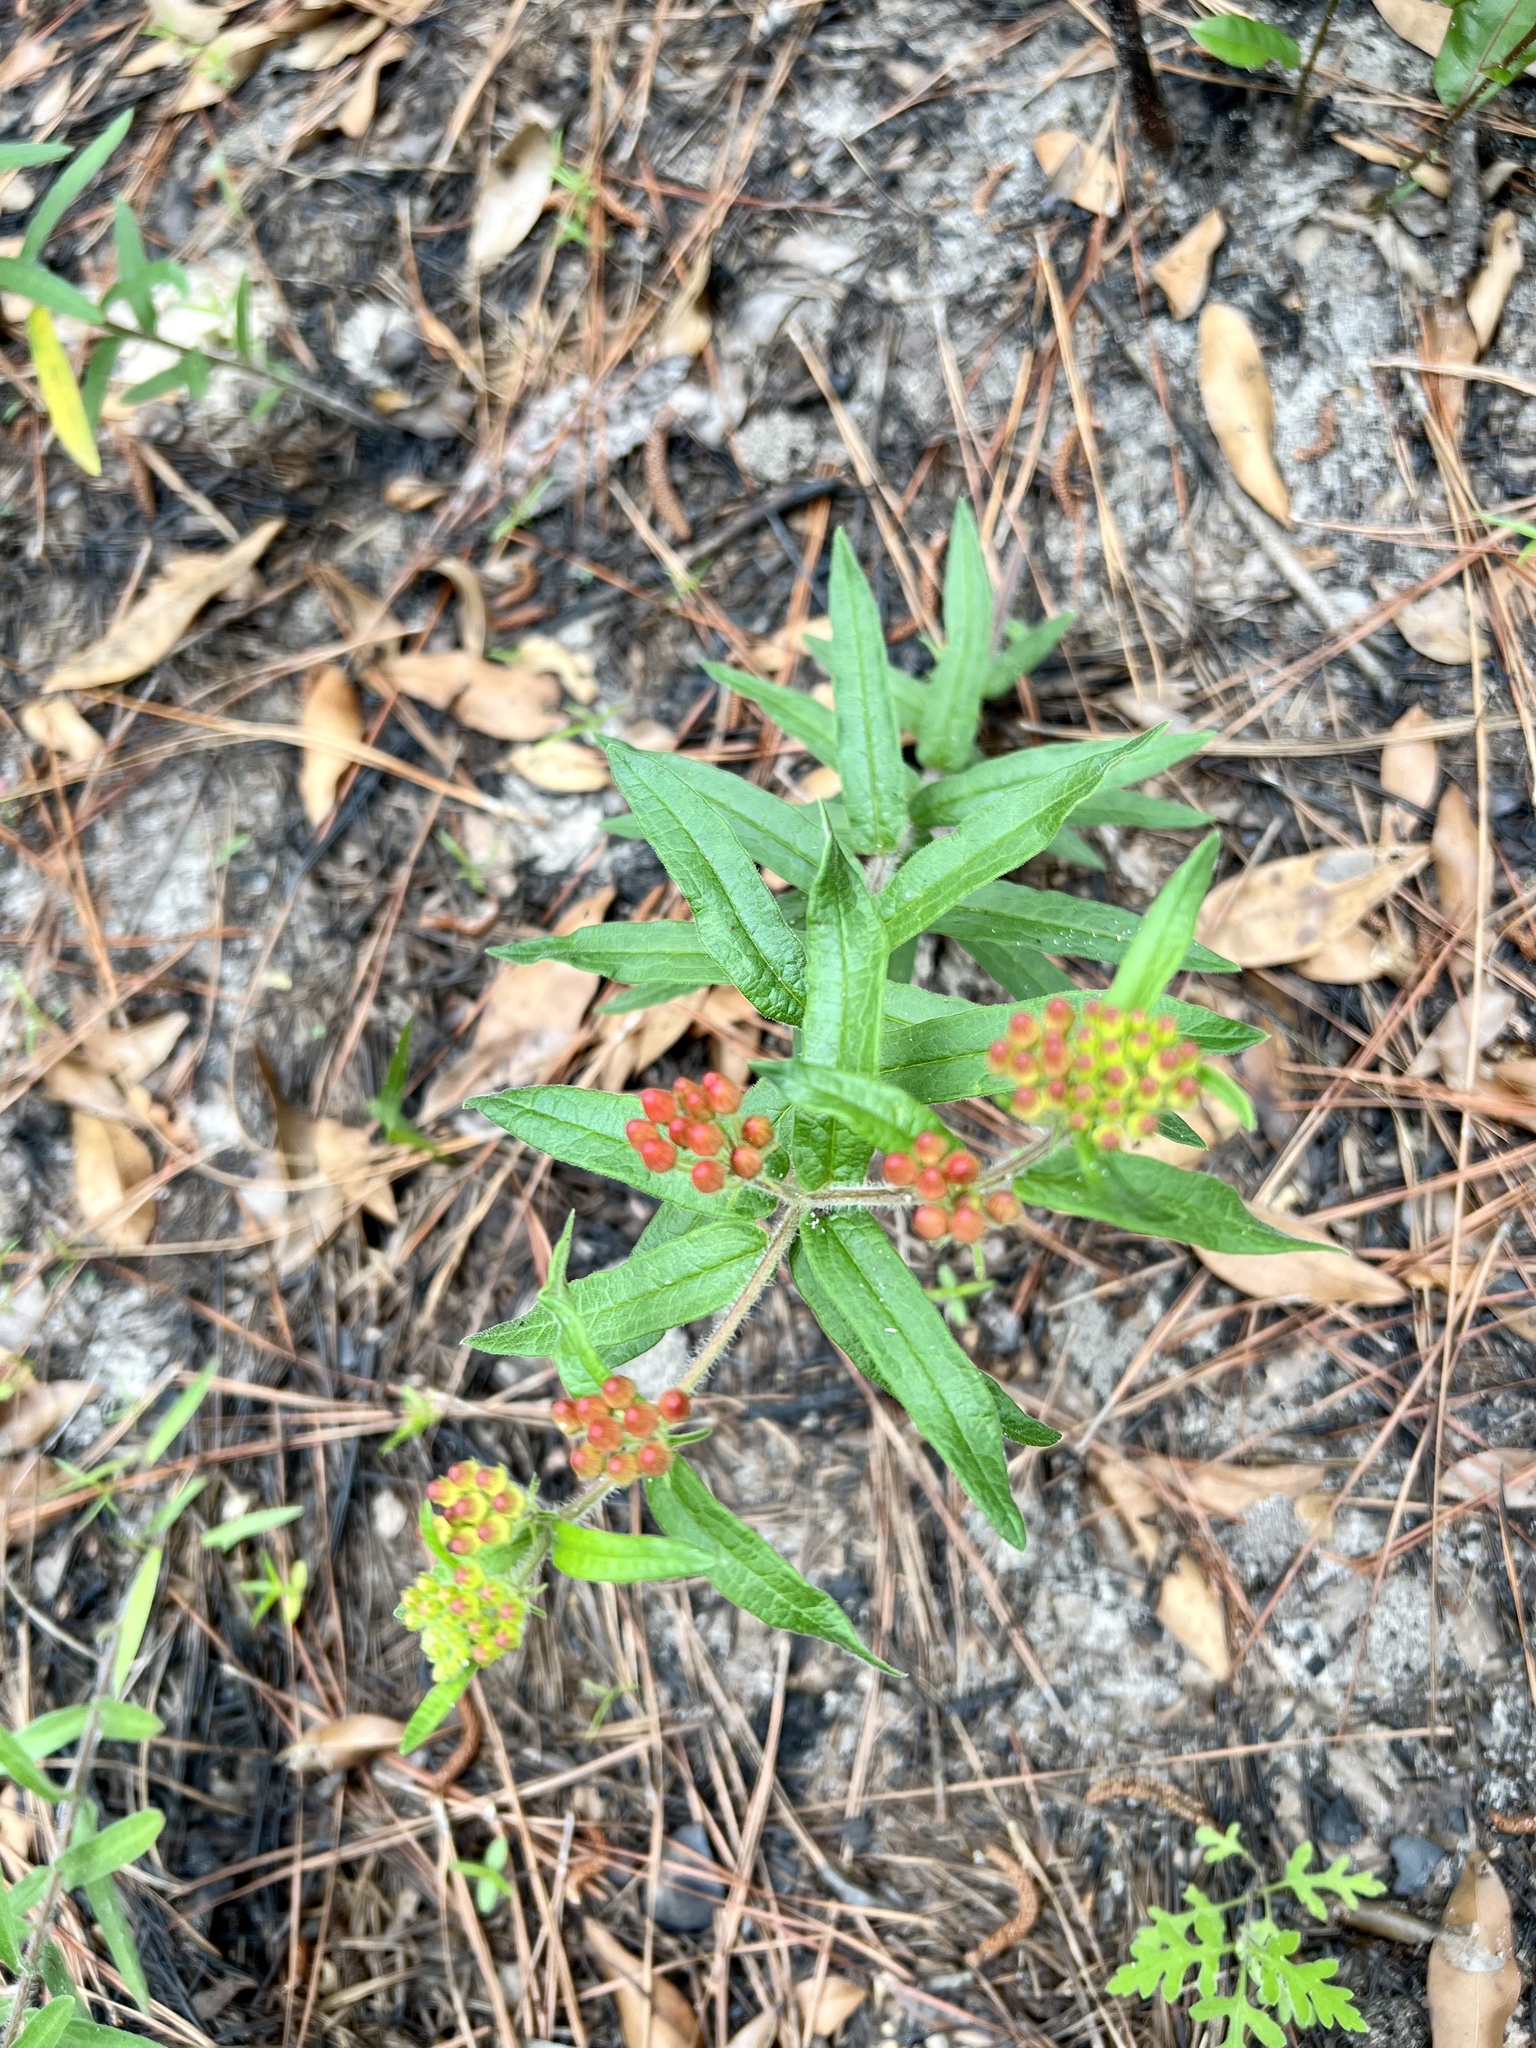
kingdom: Plantae
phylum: Tracheophyta
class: Magnoliopsida
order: Gentianales
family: Apocynaceae
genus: Asclepias
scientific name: Asclepias tuberosa
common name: Butterfly milkweed
